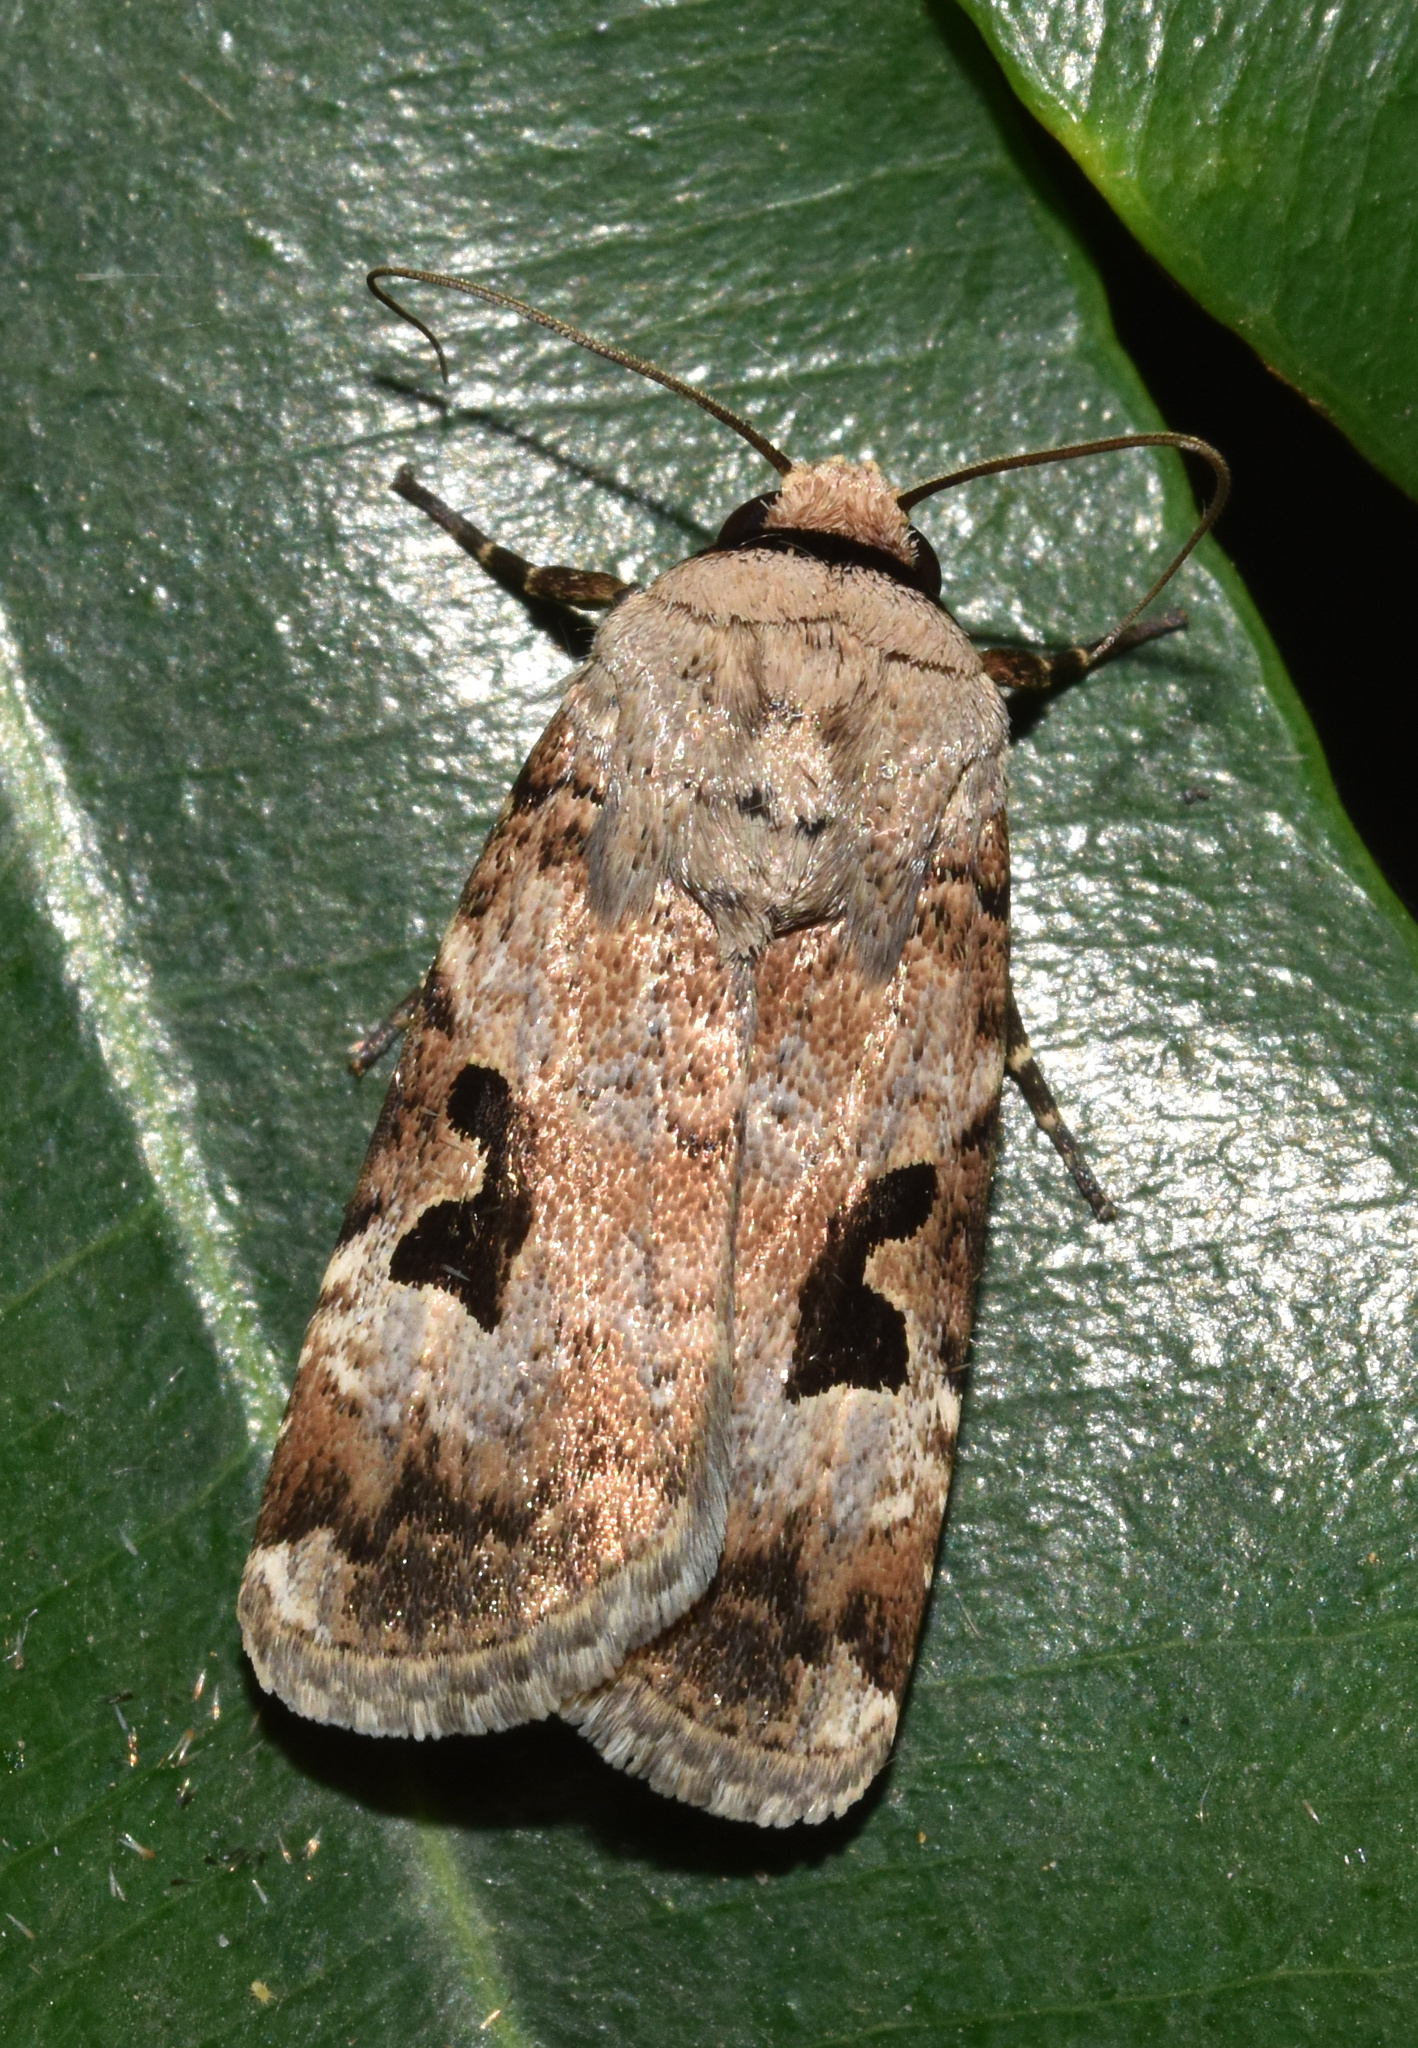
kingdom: Animalia
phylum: Arthropoda
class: Insecta
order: Lepidoptera
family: Noctuidae
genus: Spodoptera
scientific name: Spodoptera abyssinia
